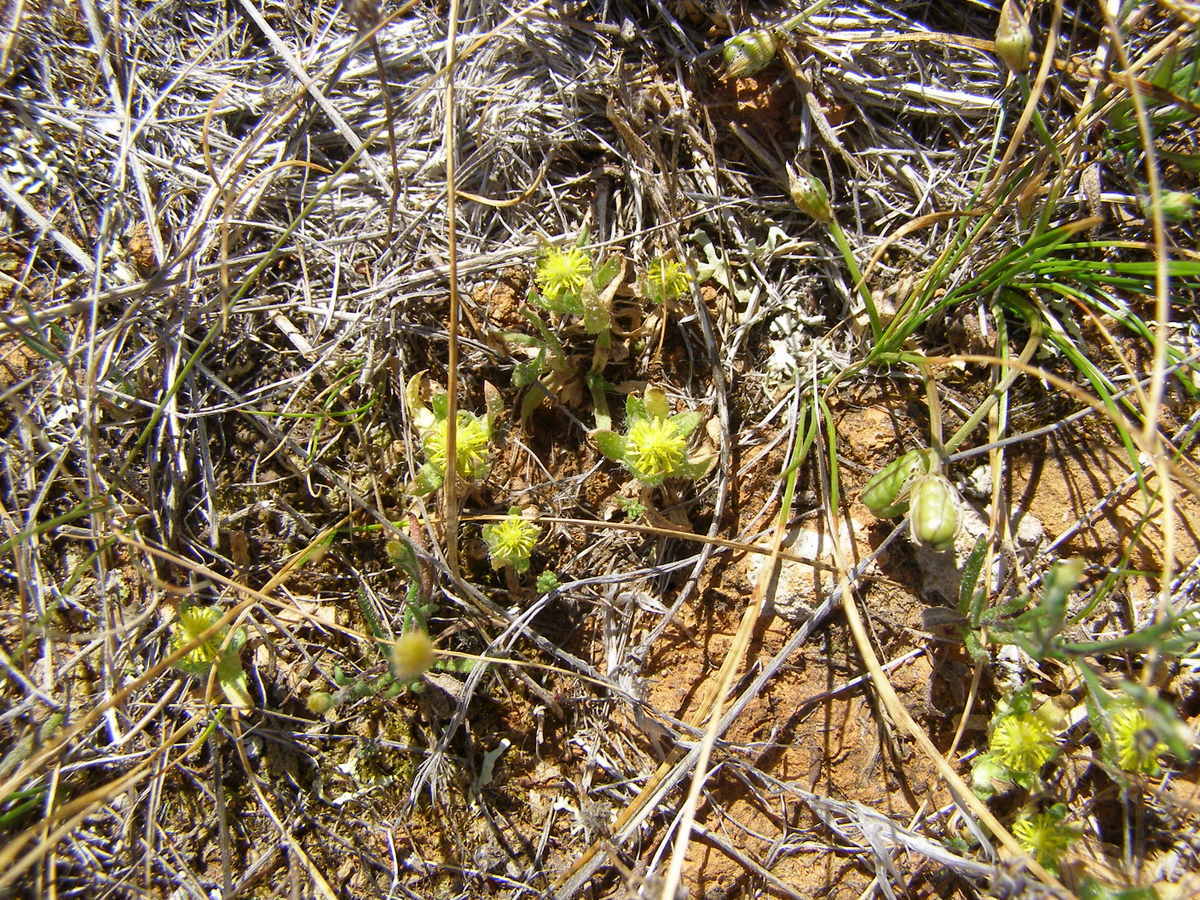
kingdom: Plantae
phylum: Tracheophyta
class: Magnoliopsida
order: Asterales
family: Asteraceae
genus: Triptilodiscus
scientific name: Triptilodiscus pygmaeus
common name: Common sunray
